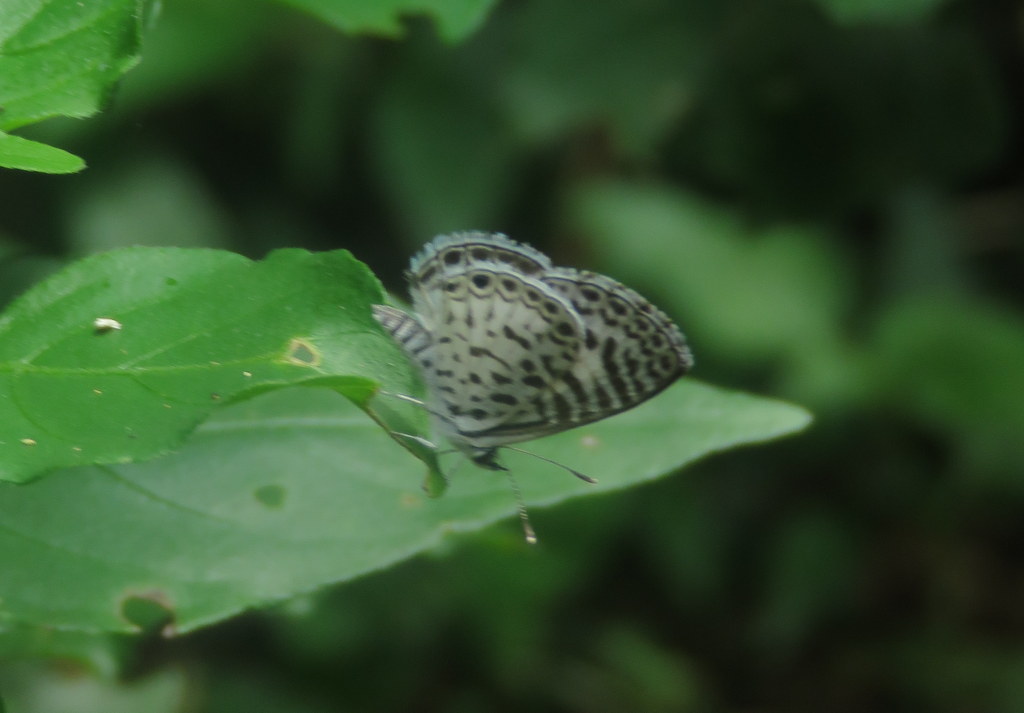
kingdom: Animalia
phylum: Arthropoda
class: Insecta
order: Lepidoptera
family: Lycaenidae
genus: Leptotes
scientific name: Leptotes cassius
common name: Cassius blue
